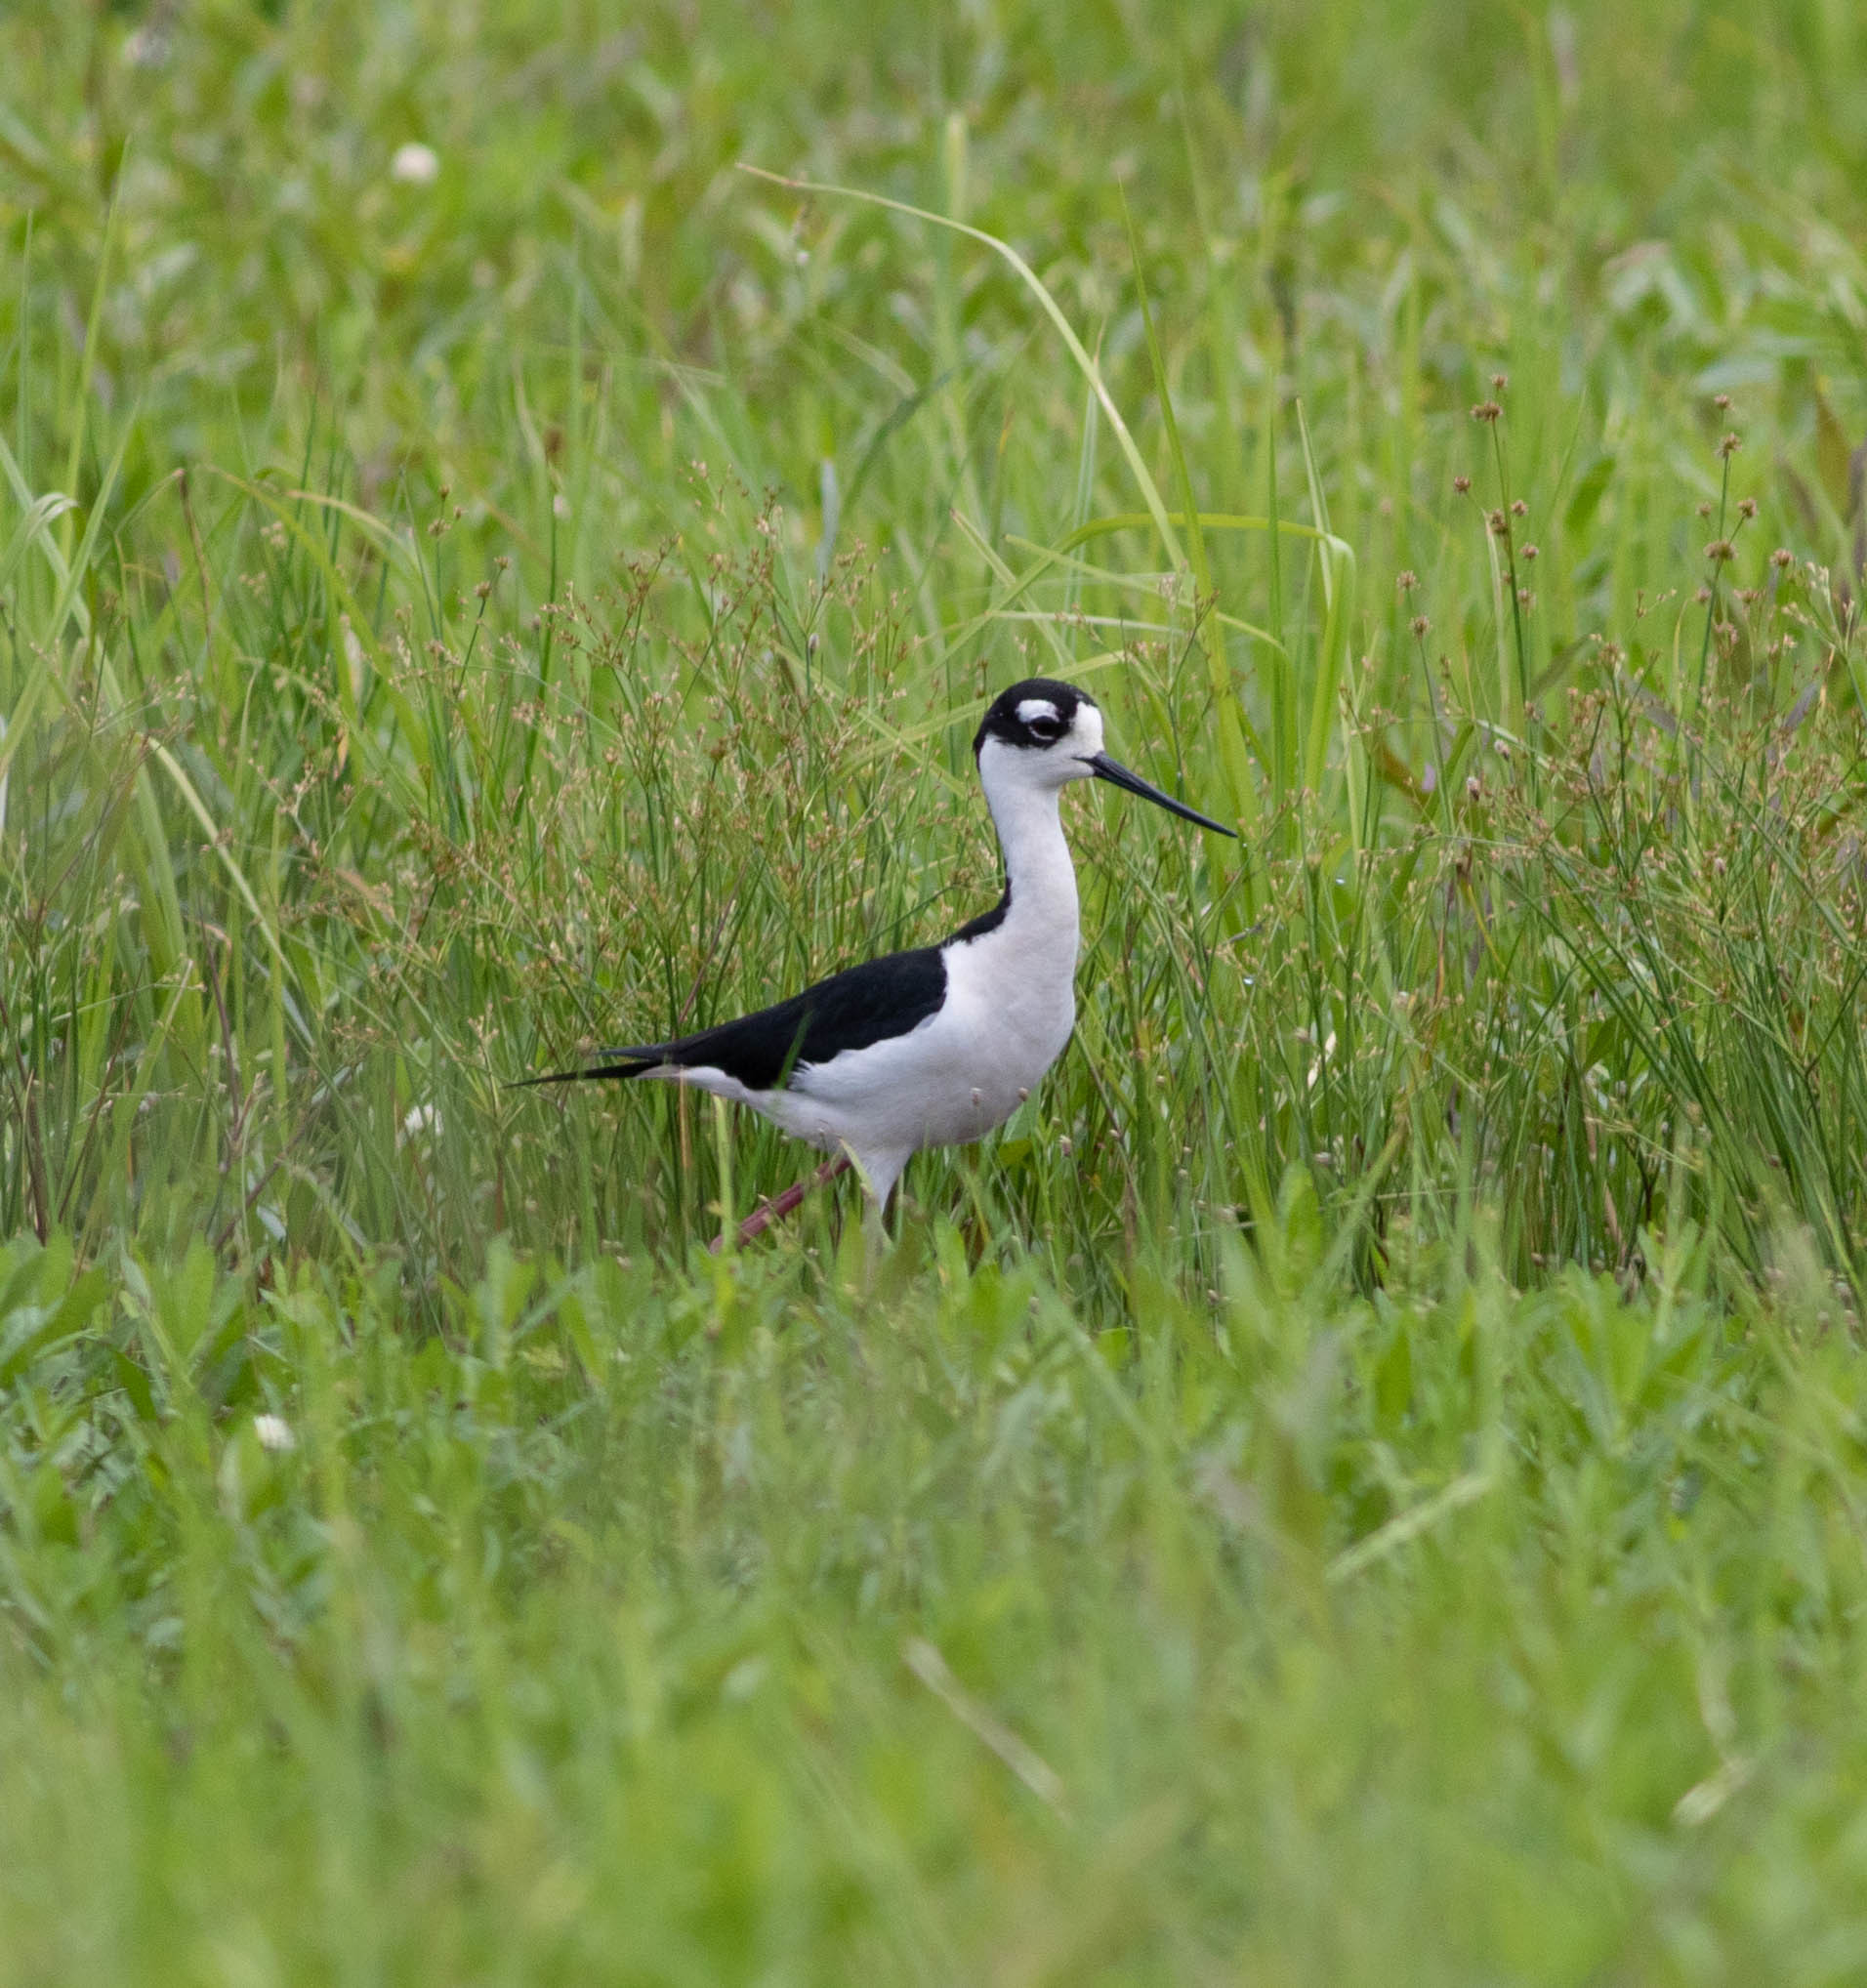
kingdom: Animalia
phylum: Chordata
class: Aves
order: Charadriiformes
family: Recurvirostridae
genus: Himantopus
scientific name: Himantopus mexicanus
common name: Black-necked stilt
